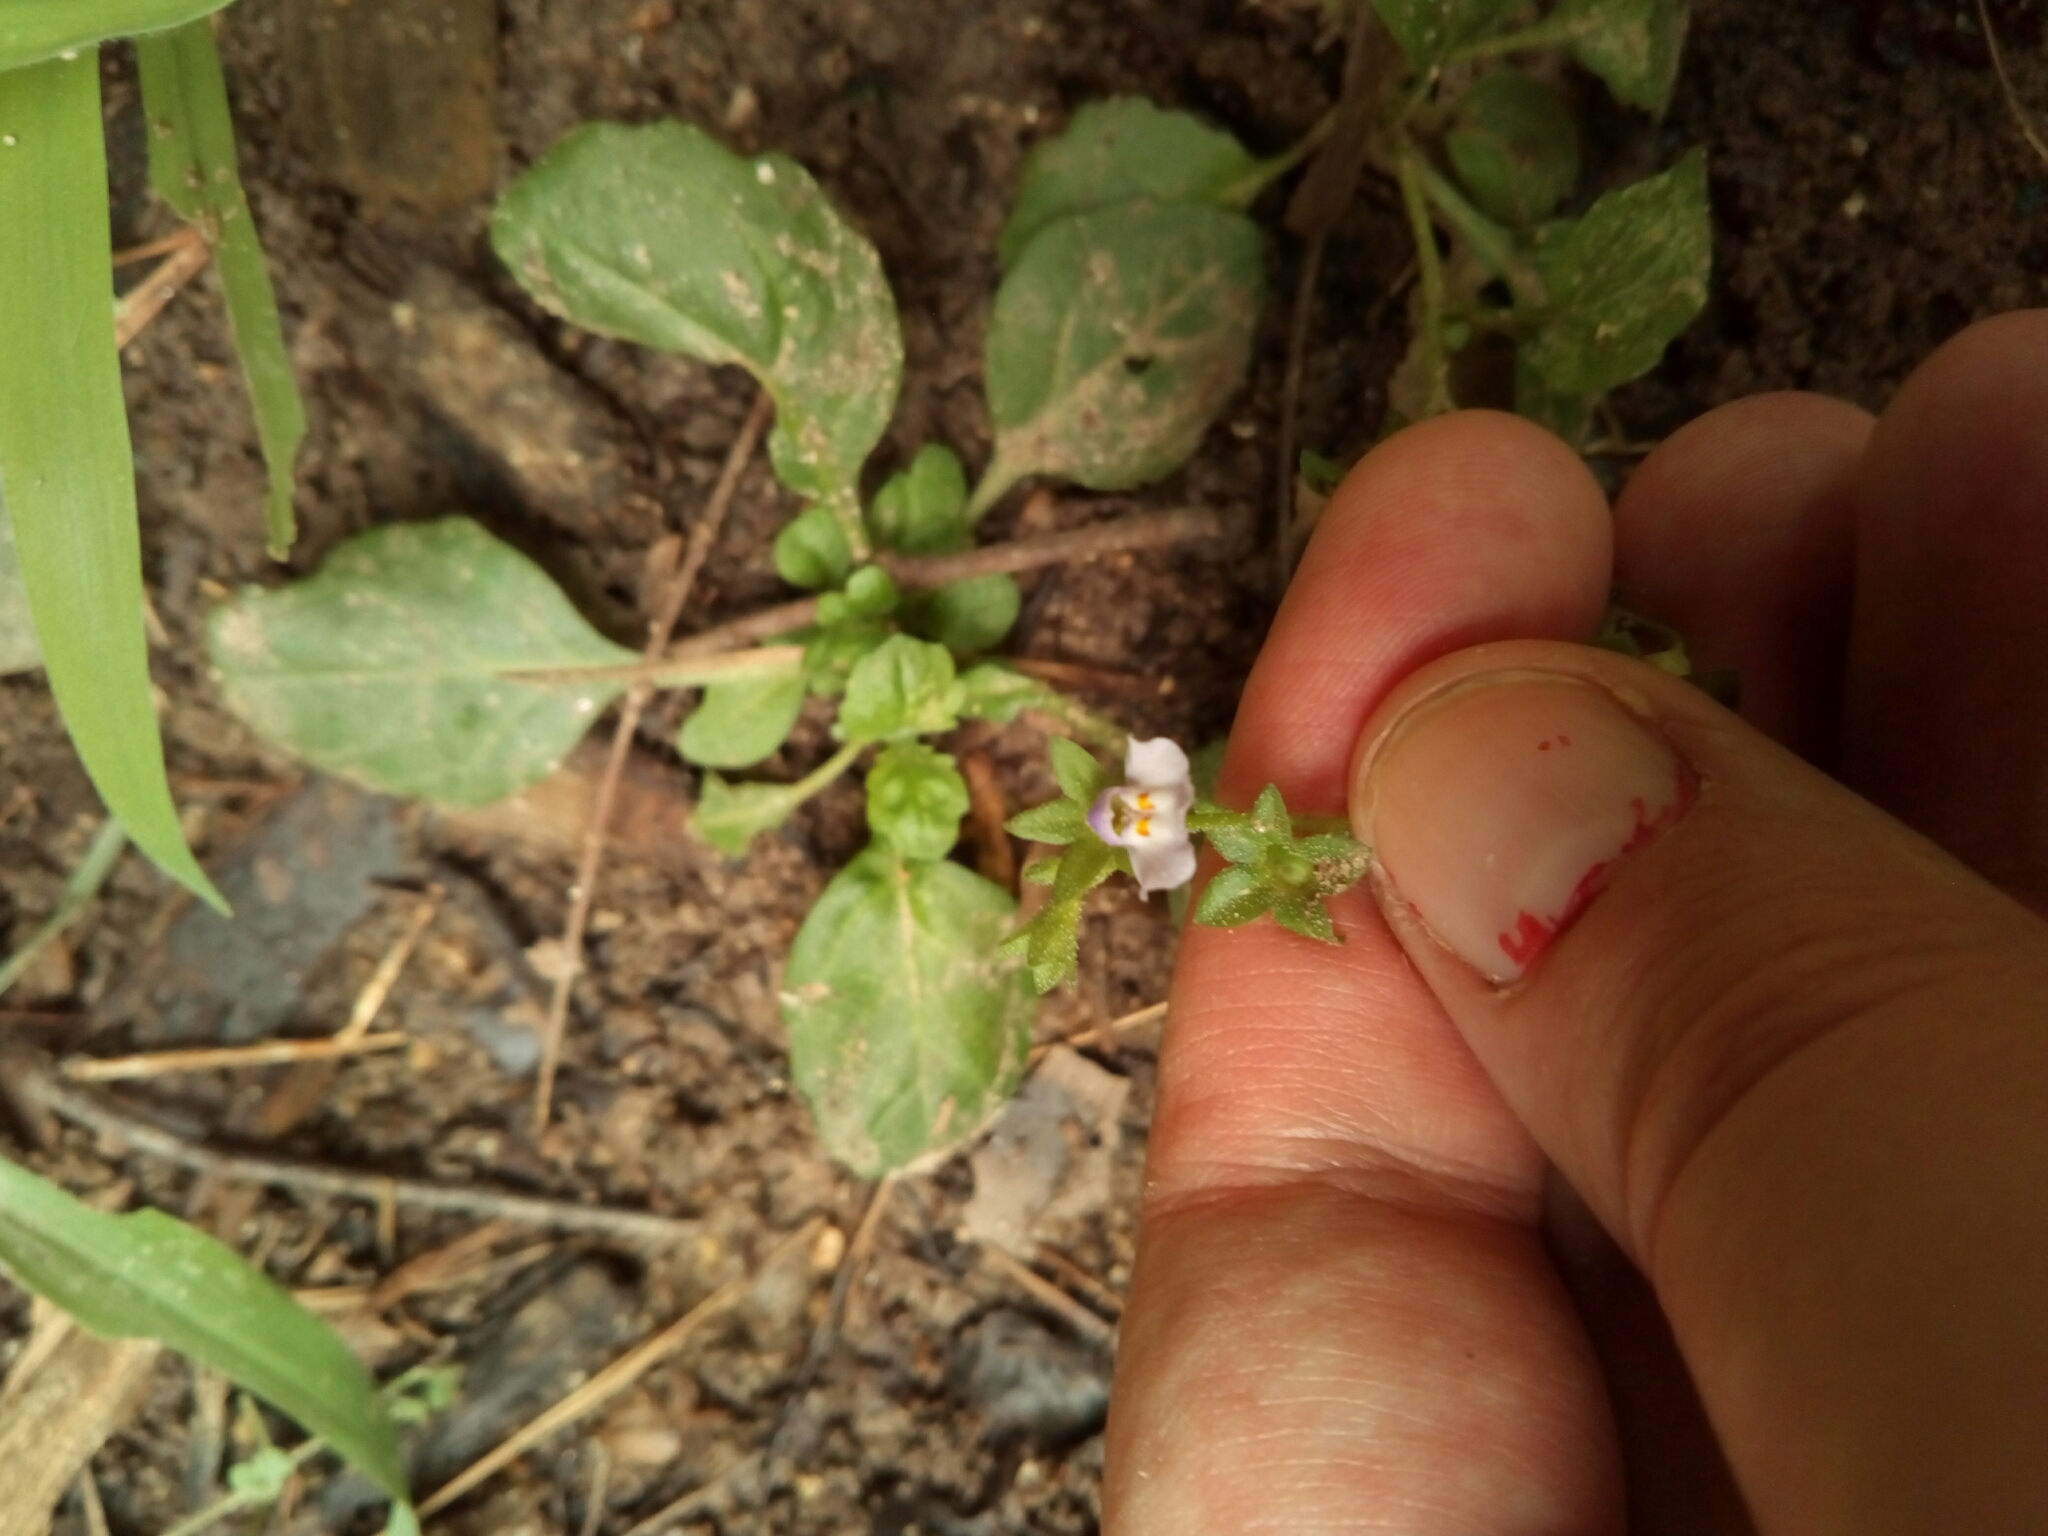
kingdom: Plantae
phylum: Tracheophyta
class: Magnoliopsida
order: Lamiales
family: Mazaceae
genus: Mazus
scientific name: Mazus pumilus
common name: Japanese mazus
